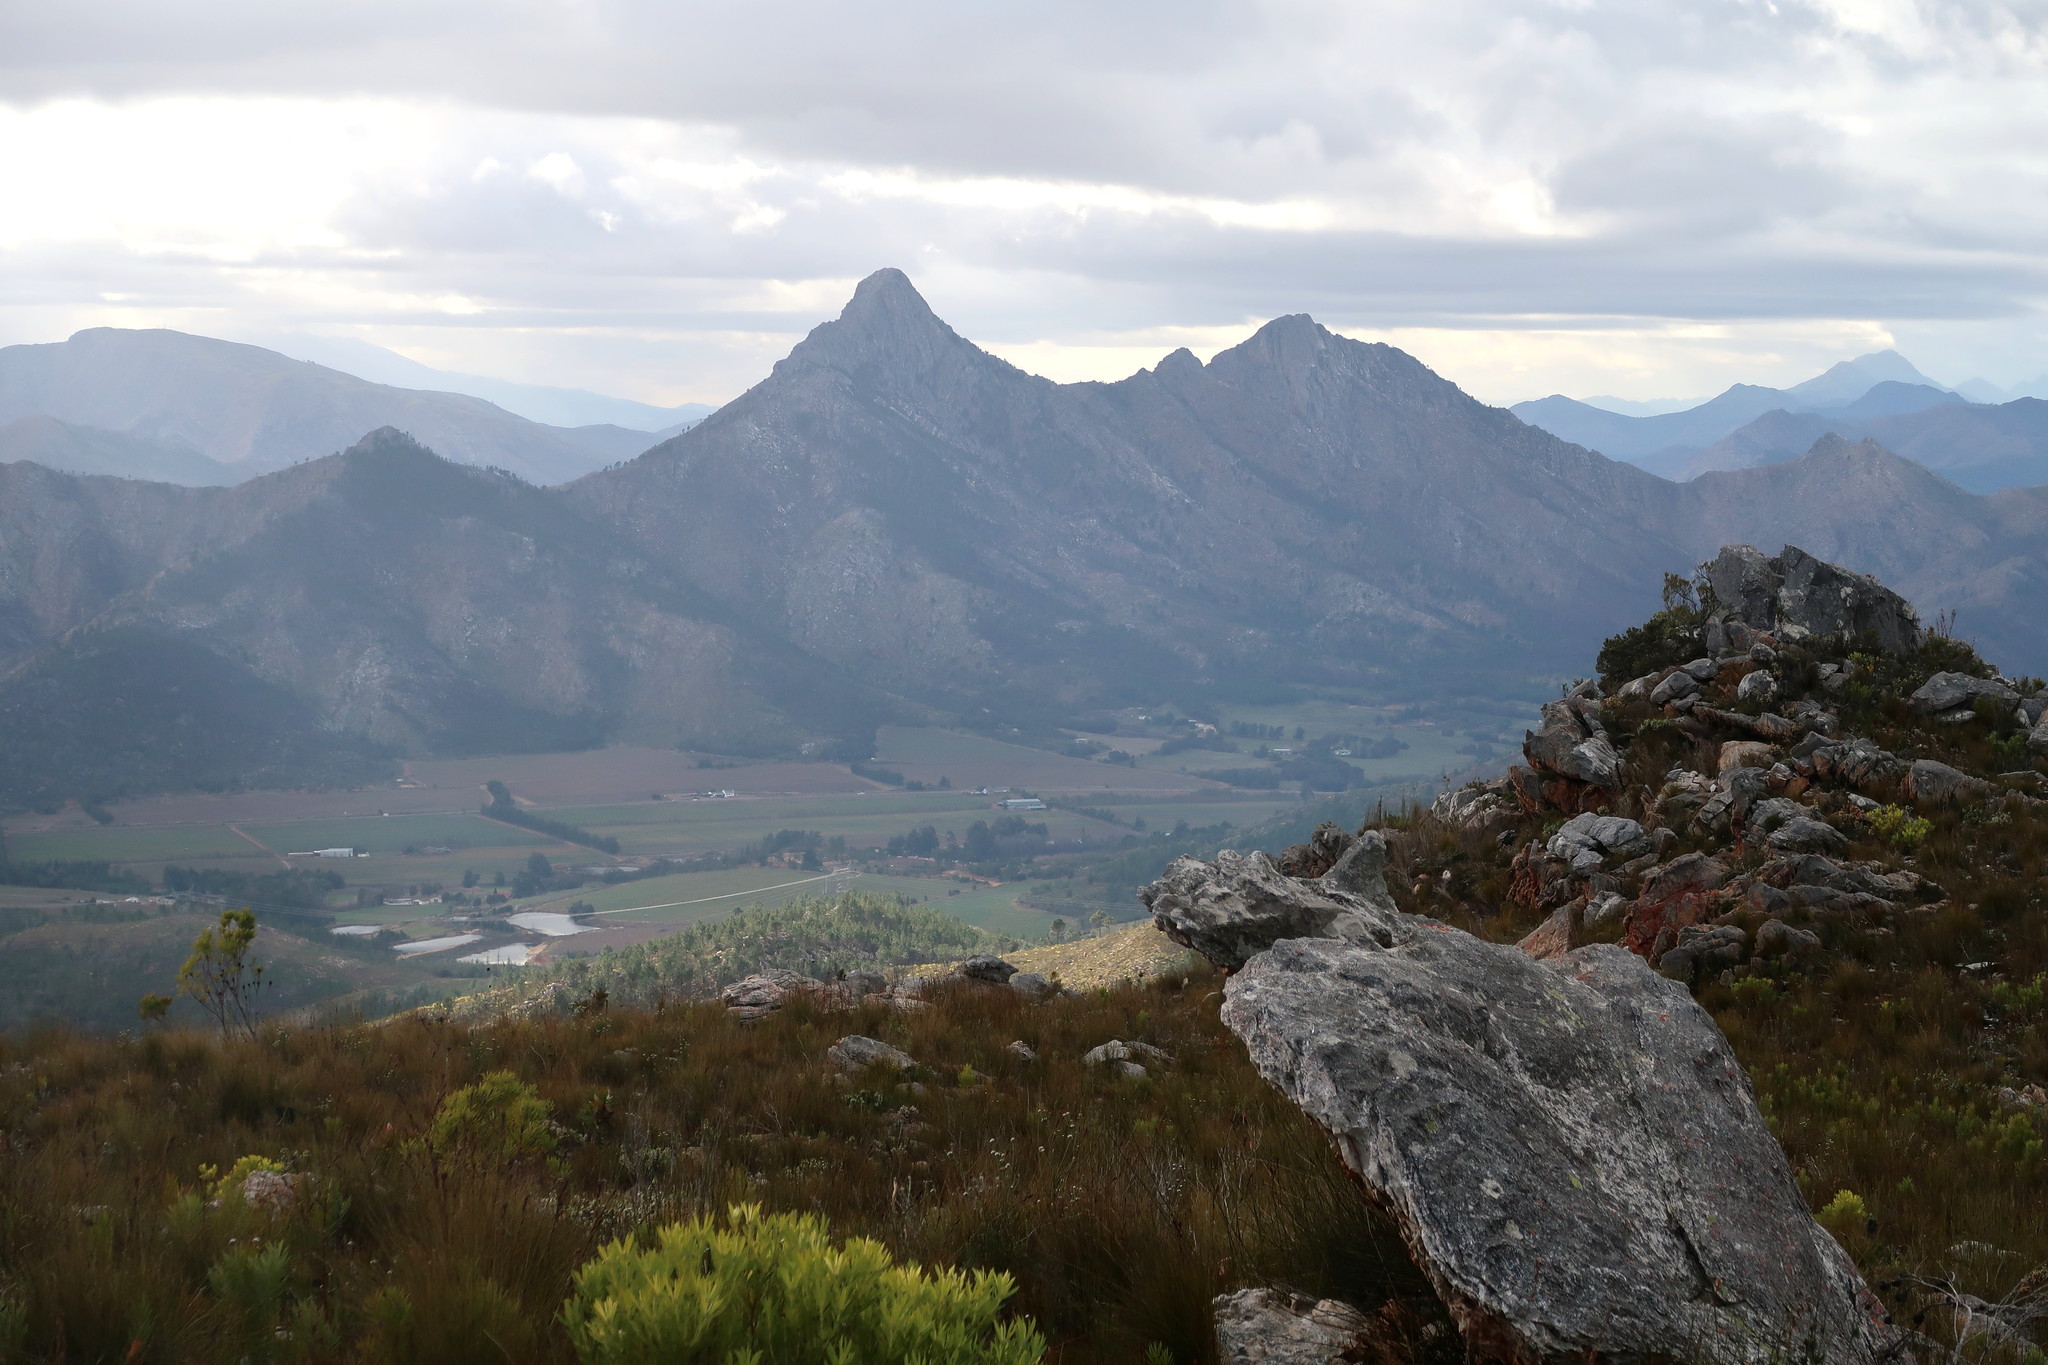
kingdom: Plantae
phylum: Tracheophyta
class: Magnoliopsida
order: Proteales
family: Proteaceae
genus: Leucadendron
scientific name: Leucadendron salignum
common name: Common sunshine conebush
